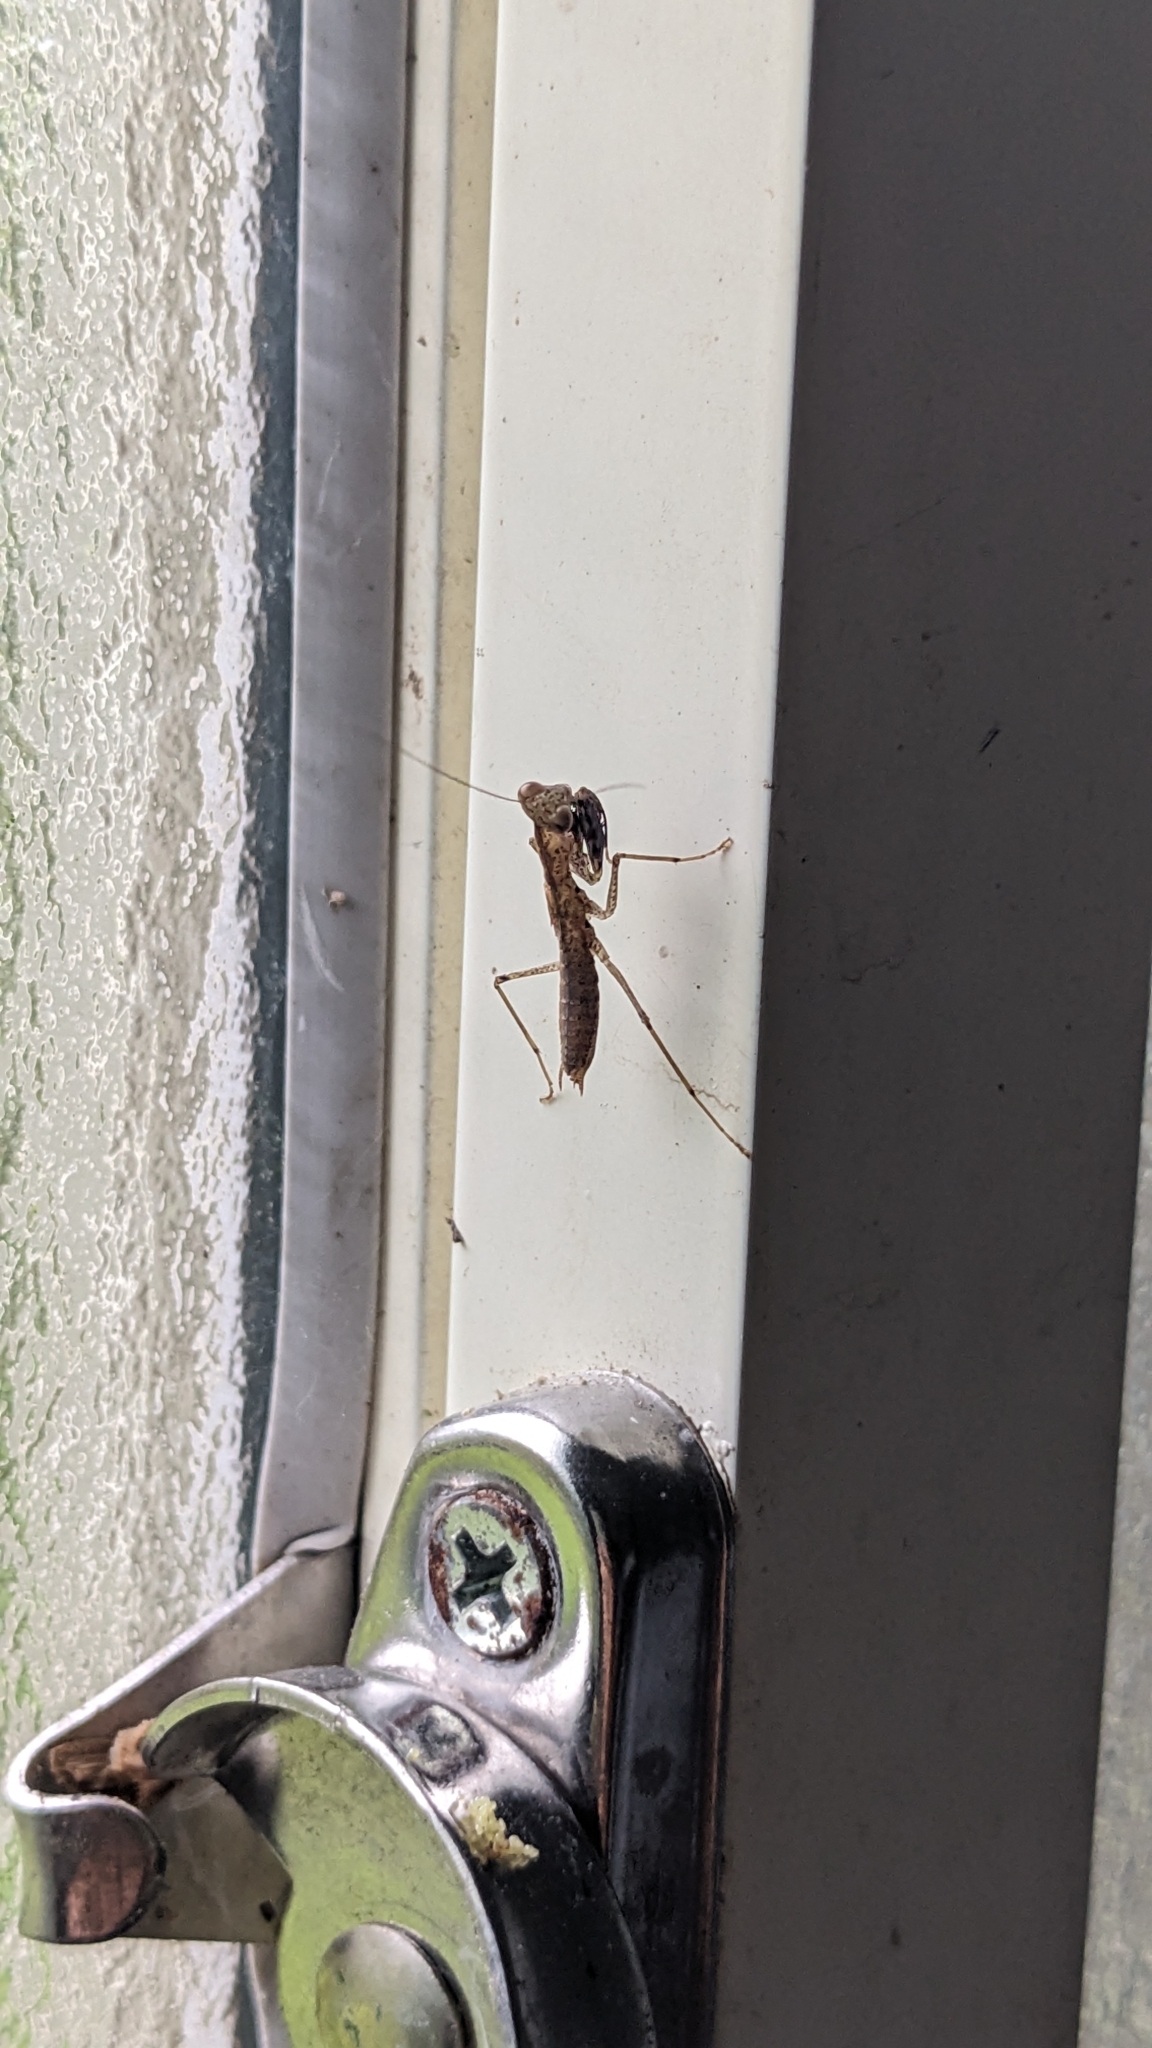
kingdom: Animalia
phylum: Arthropoda
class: Insecta
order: Mantodea
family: Gonypetidae
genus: Amantis
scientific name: Amantis nawai
